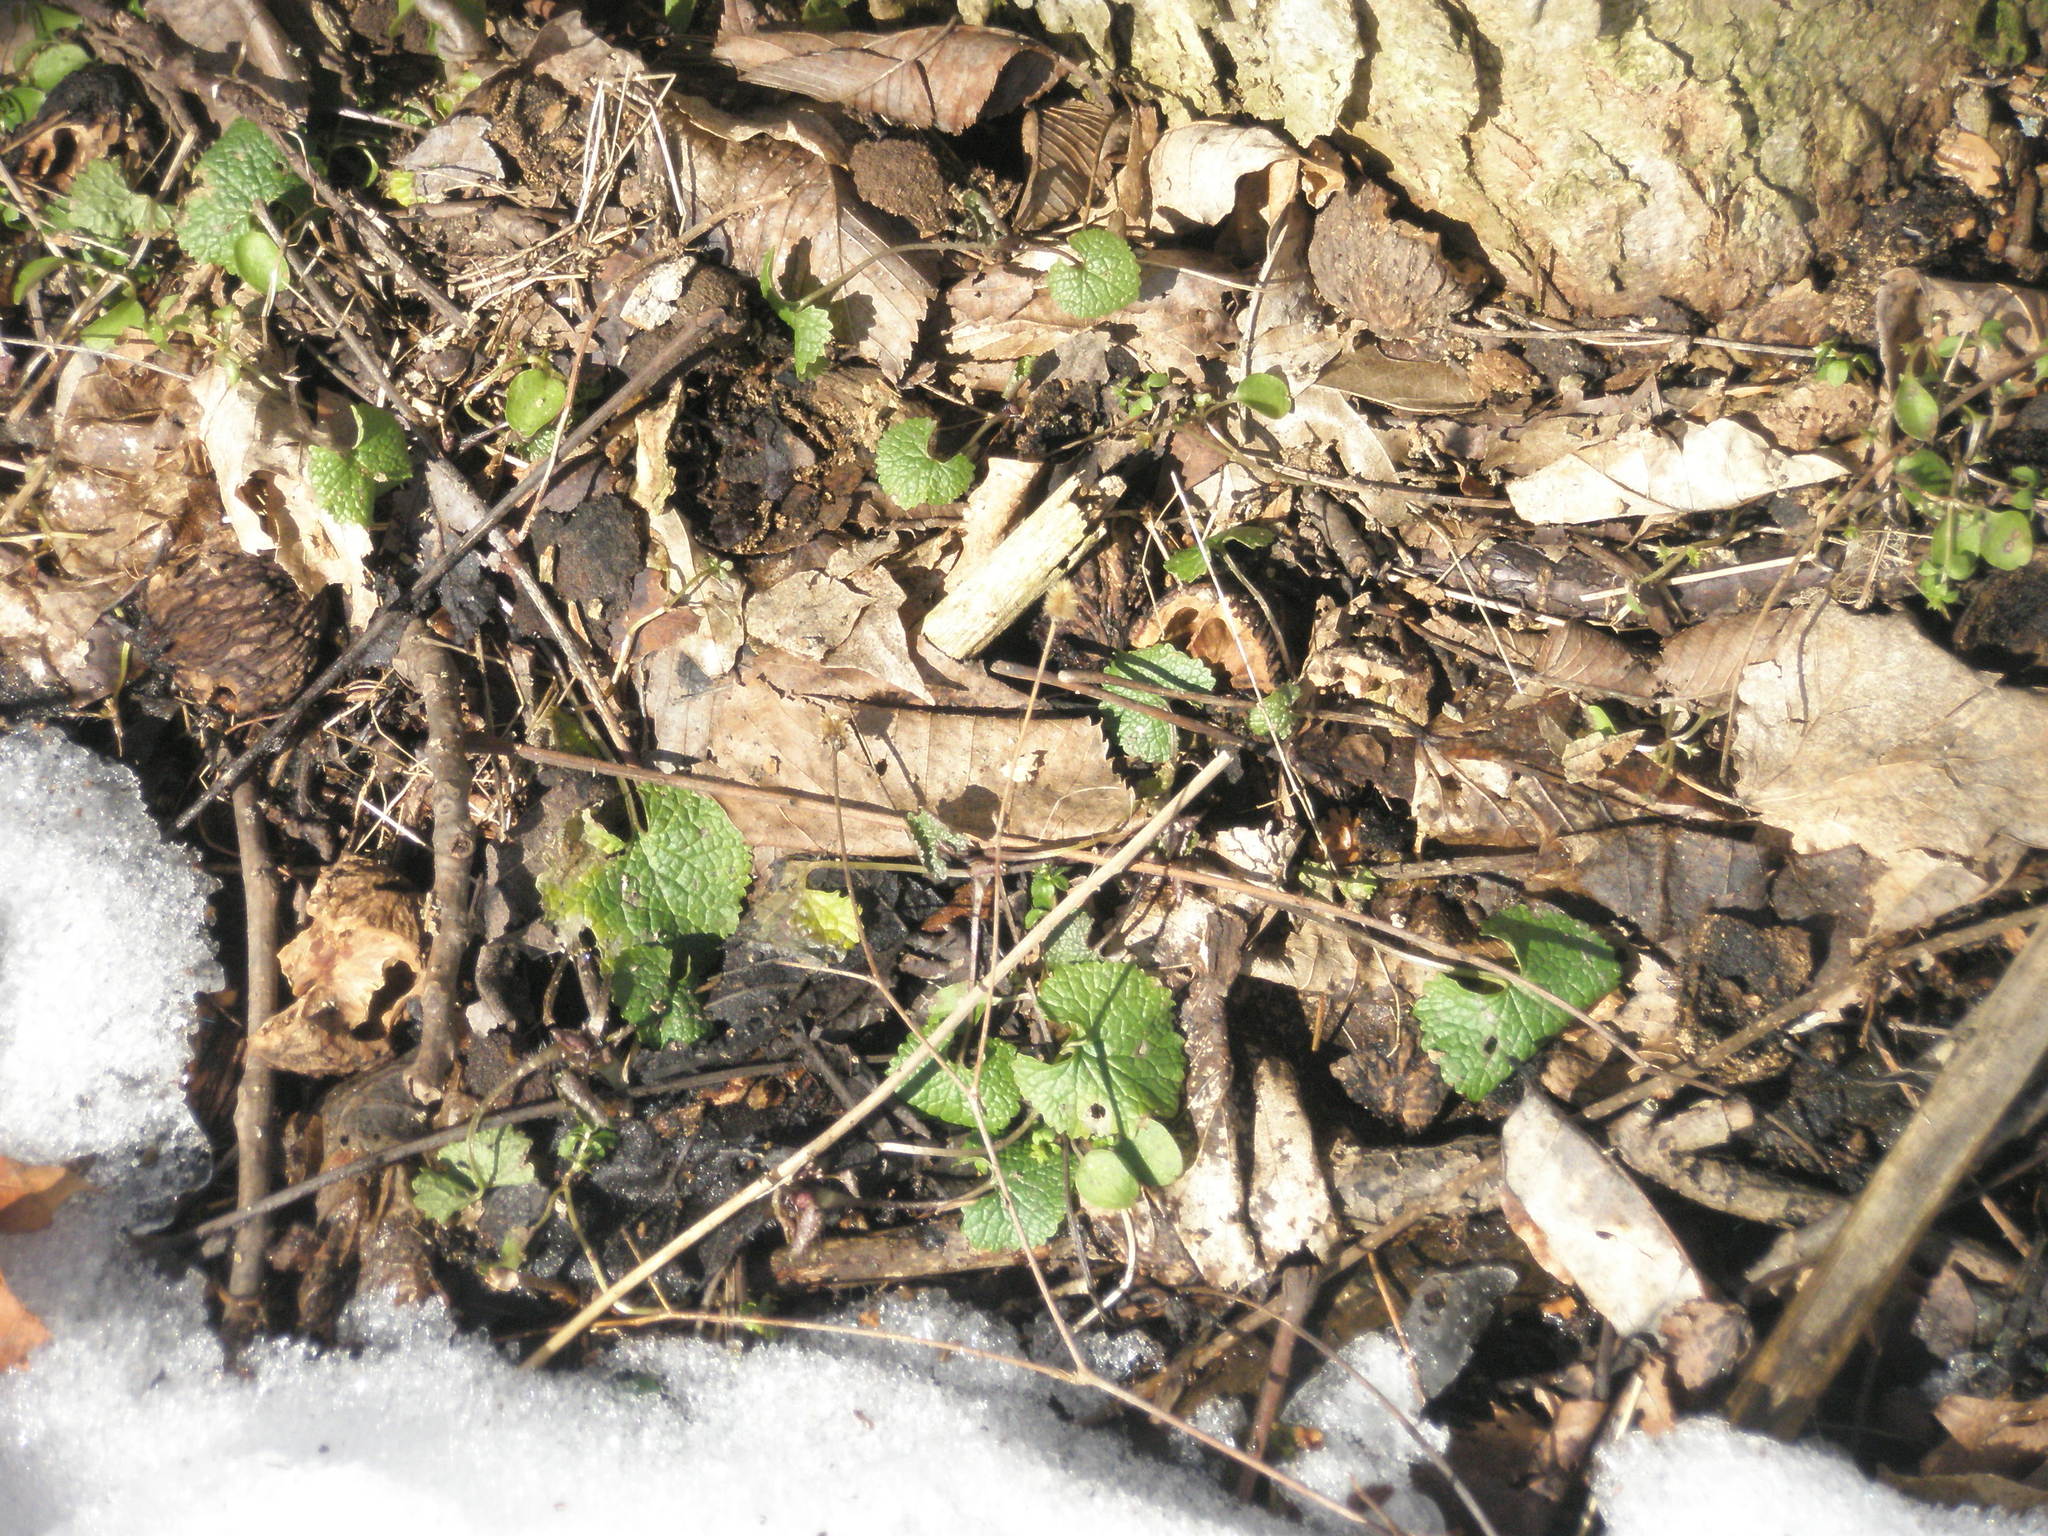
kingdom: Plantae
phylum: Tracheophyta
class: Magnoliopsida
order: Brassicales
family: Brassicaceae
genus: Alliaria
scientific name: Alliaria petiolata
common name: Garlic mustard
